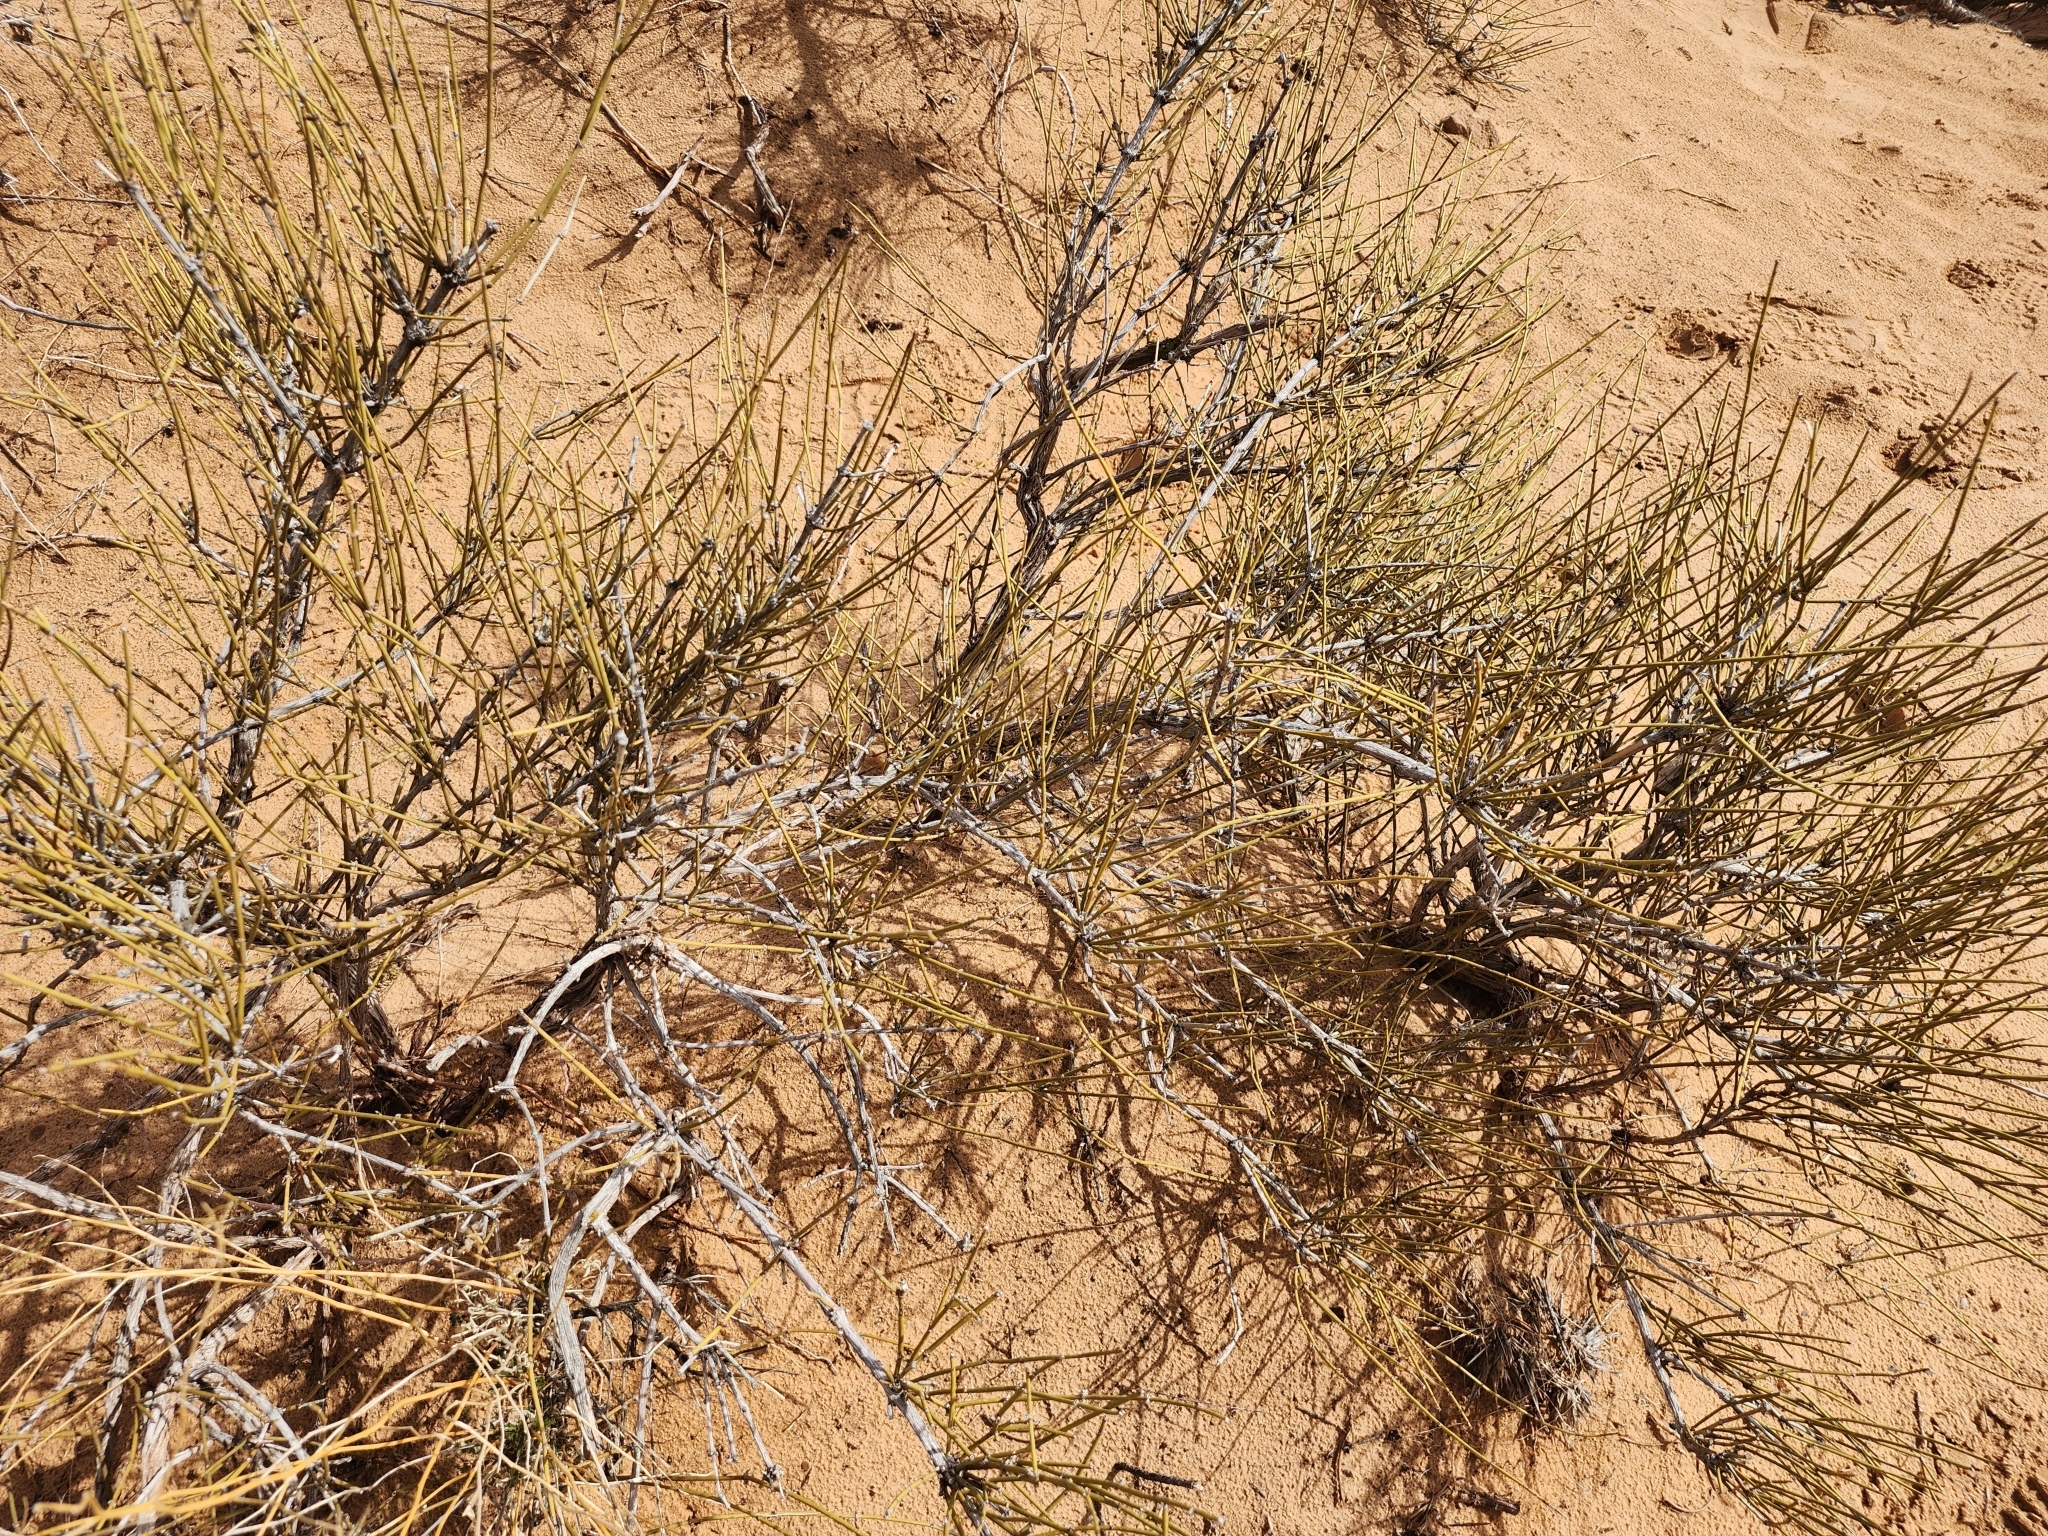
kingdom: Plantae
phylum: Tracheophyta
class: Gnetopsida
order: Ephedrales
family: Ephedraceae
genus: Ephedra
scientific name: Ephedra viridis
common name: Green ephedra
